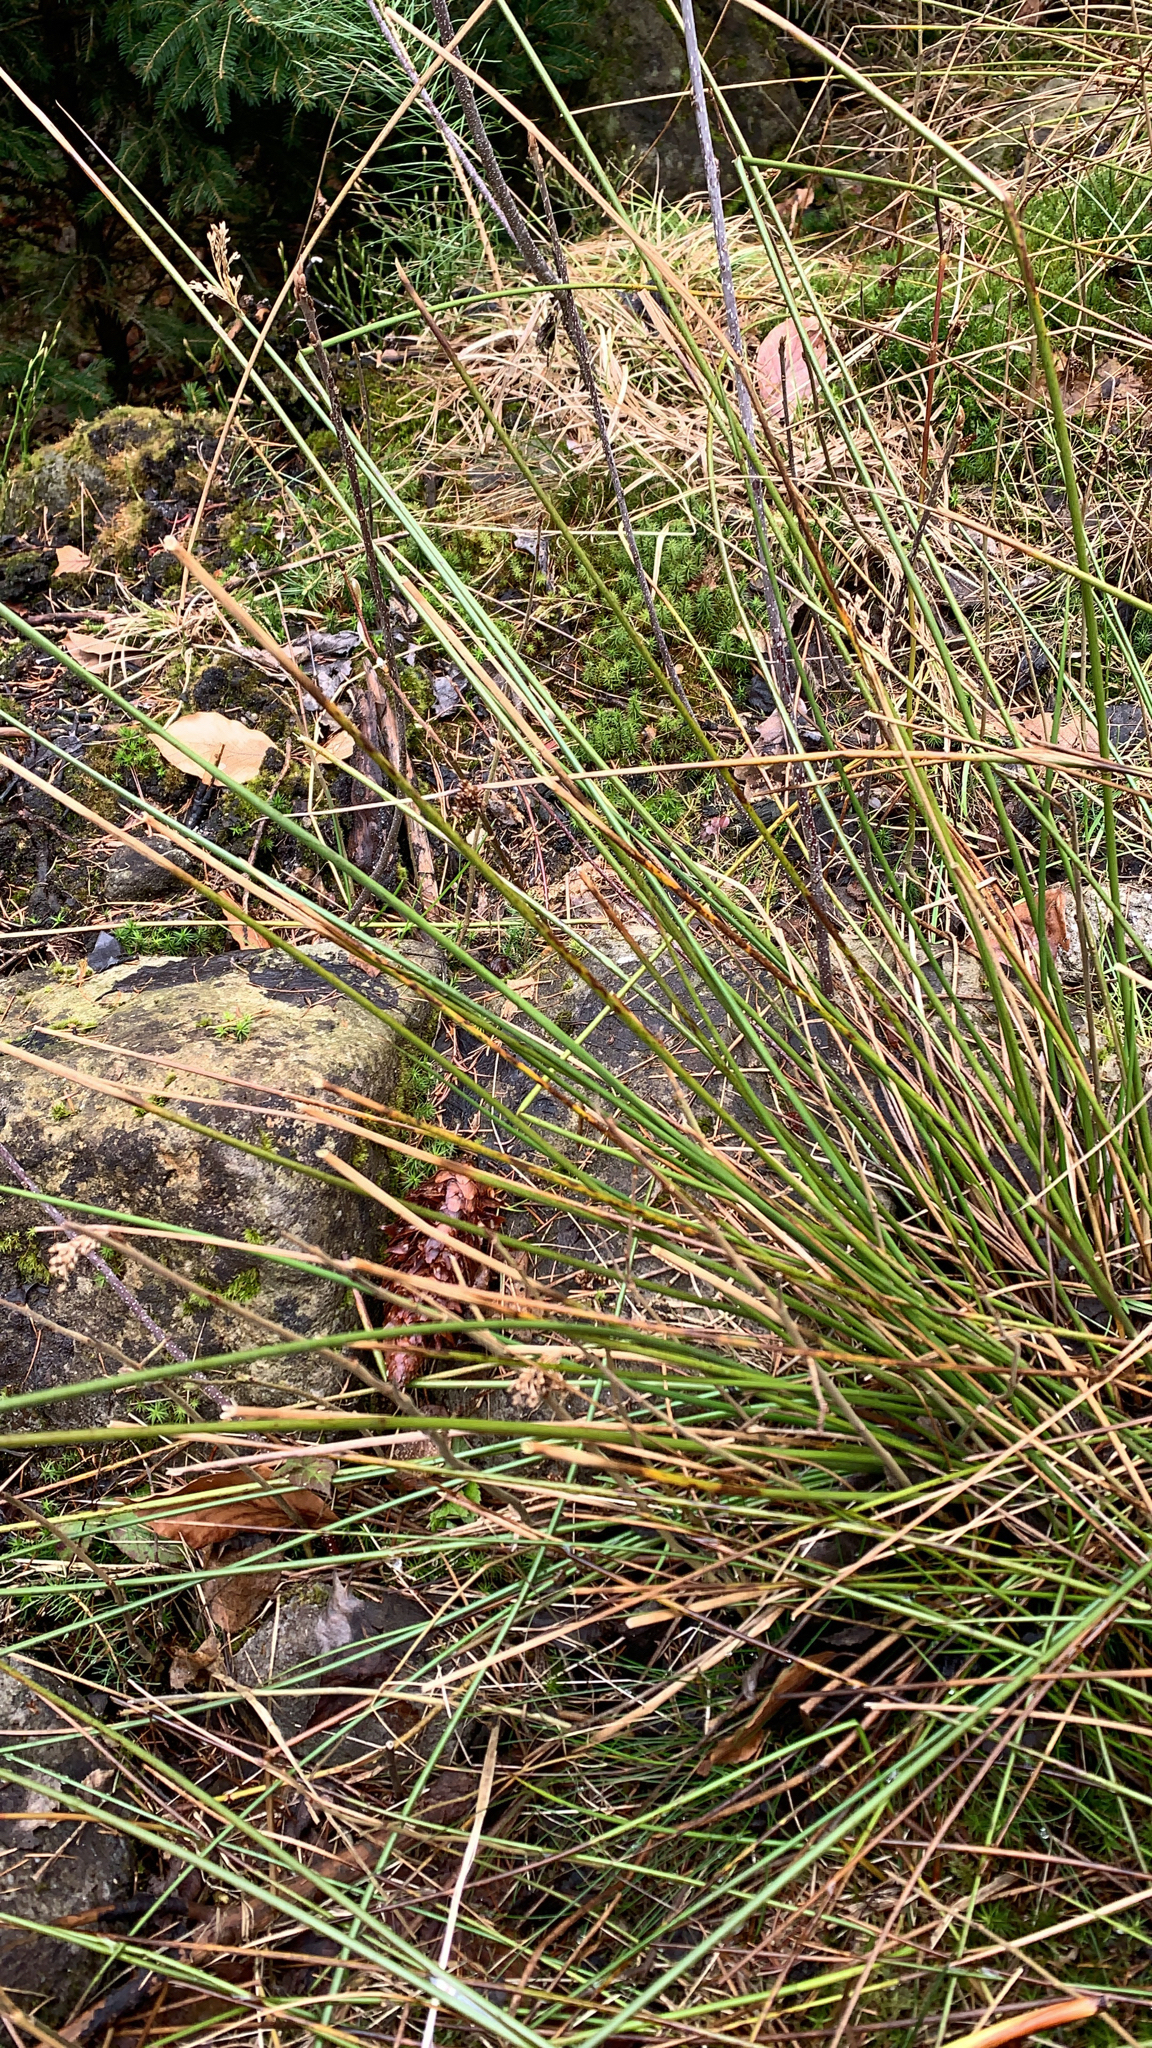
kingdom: Plantae
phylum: Tracheophyta
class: Liliopsida
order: Poales
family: Juncaceae
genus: Juncus
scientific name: Juncus effusus
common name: Soft rush
